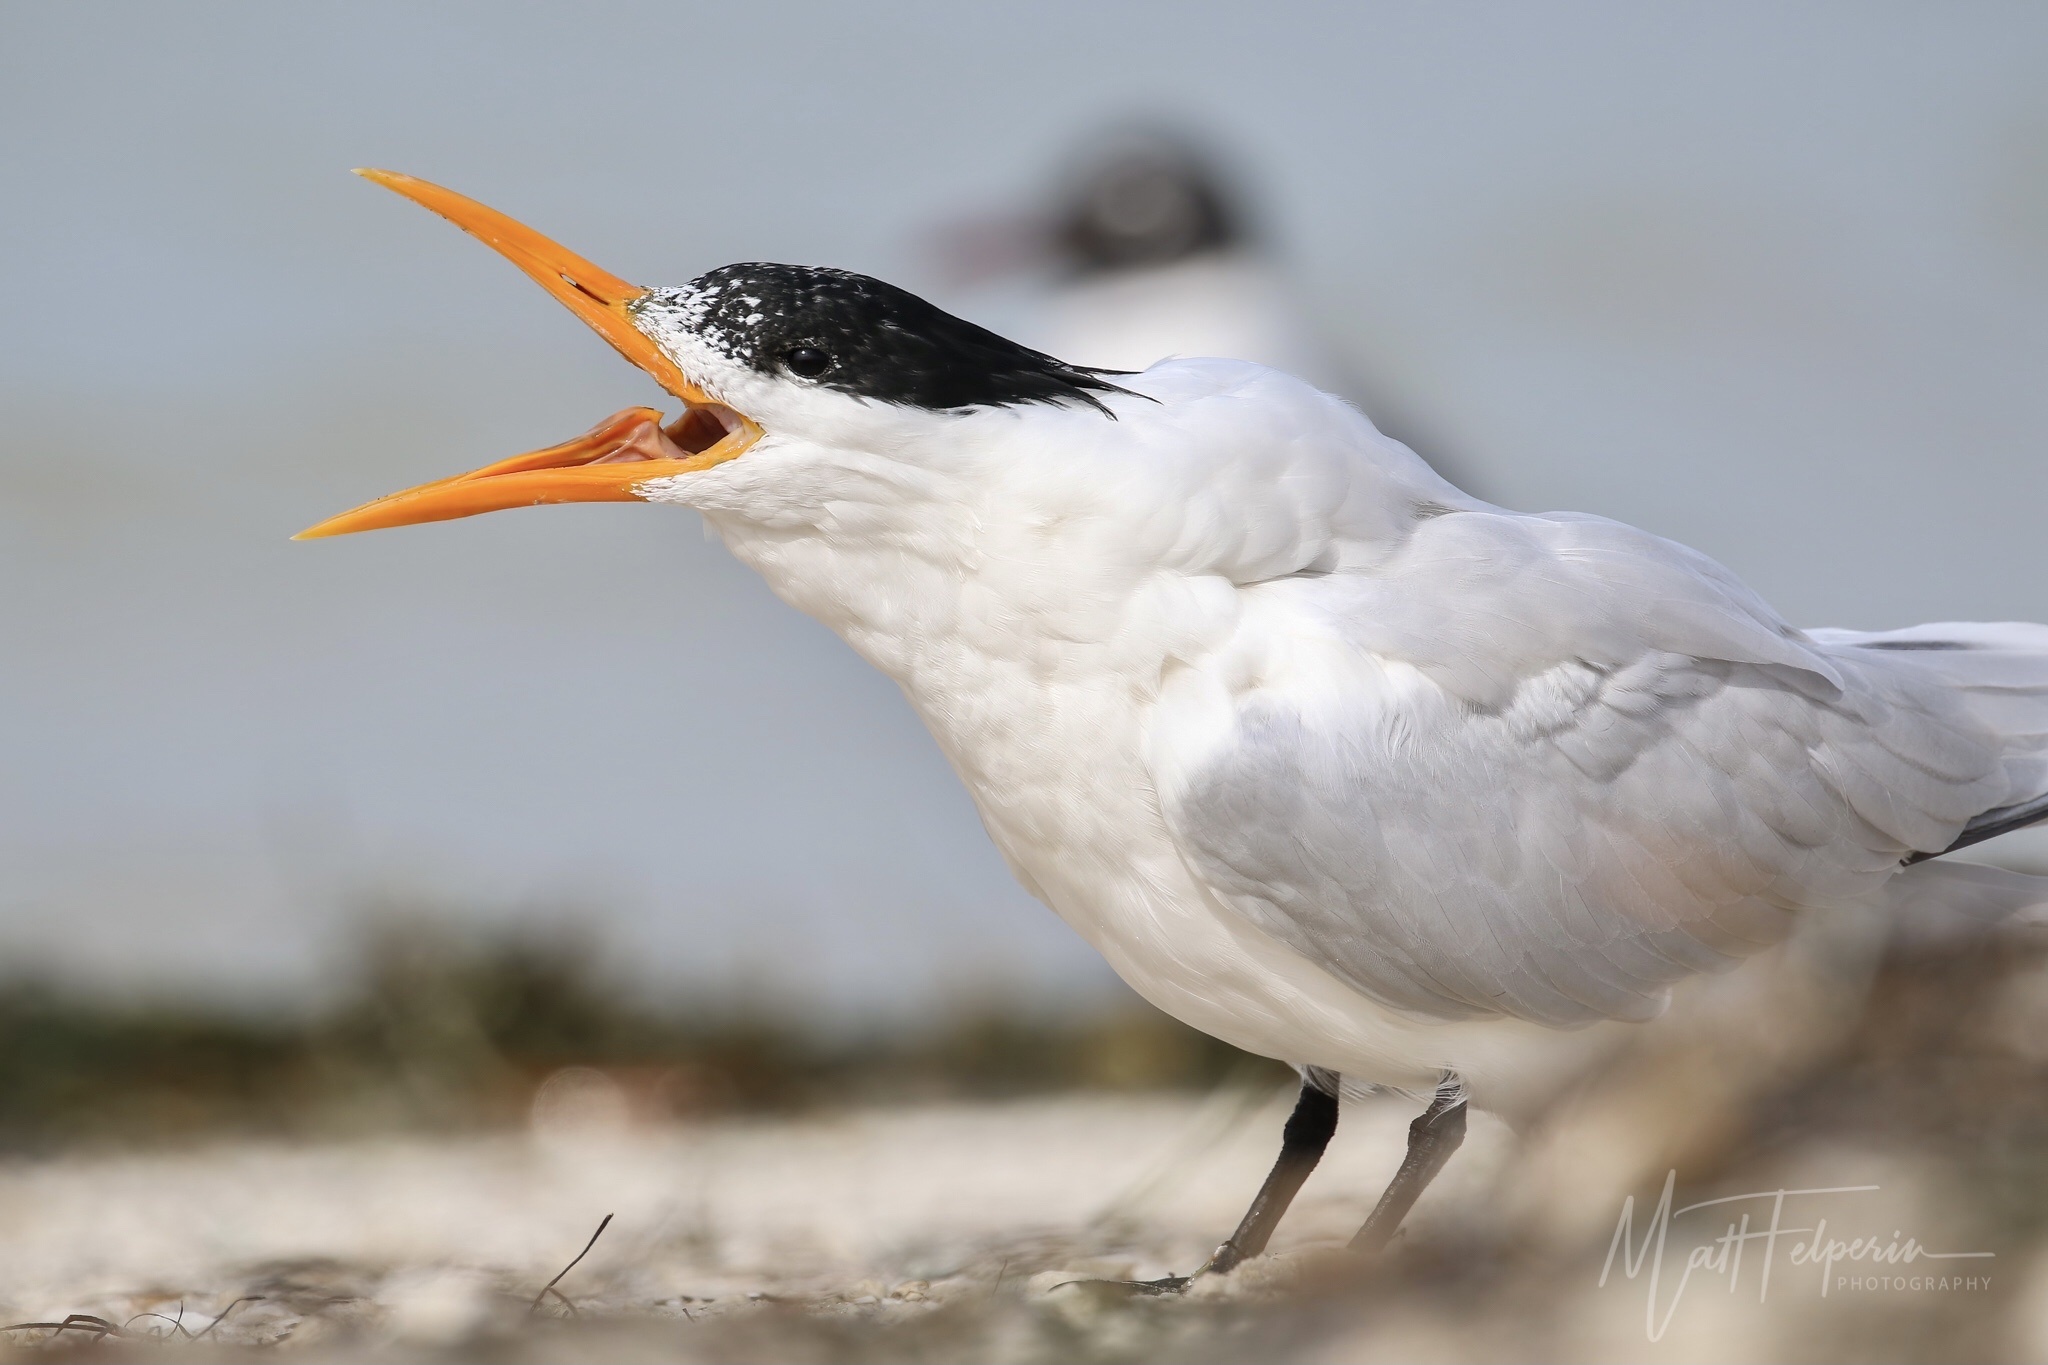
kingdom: Animalia
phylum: Chordata
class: Aves
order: Charadriiformes
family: Laridae
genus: Thalasseus
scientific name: Thalasseus maximus
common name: Royal tern
